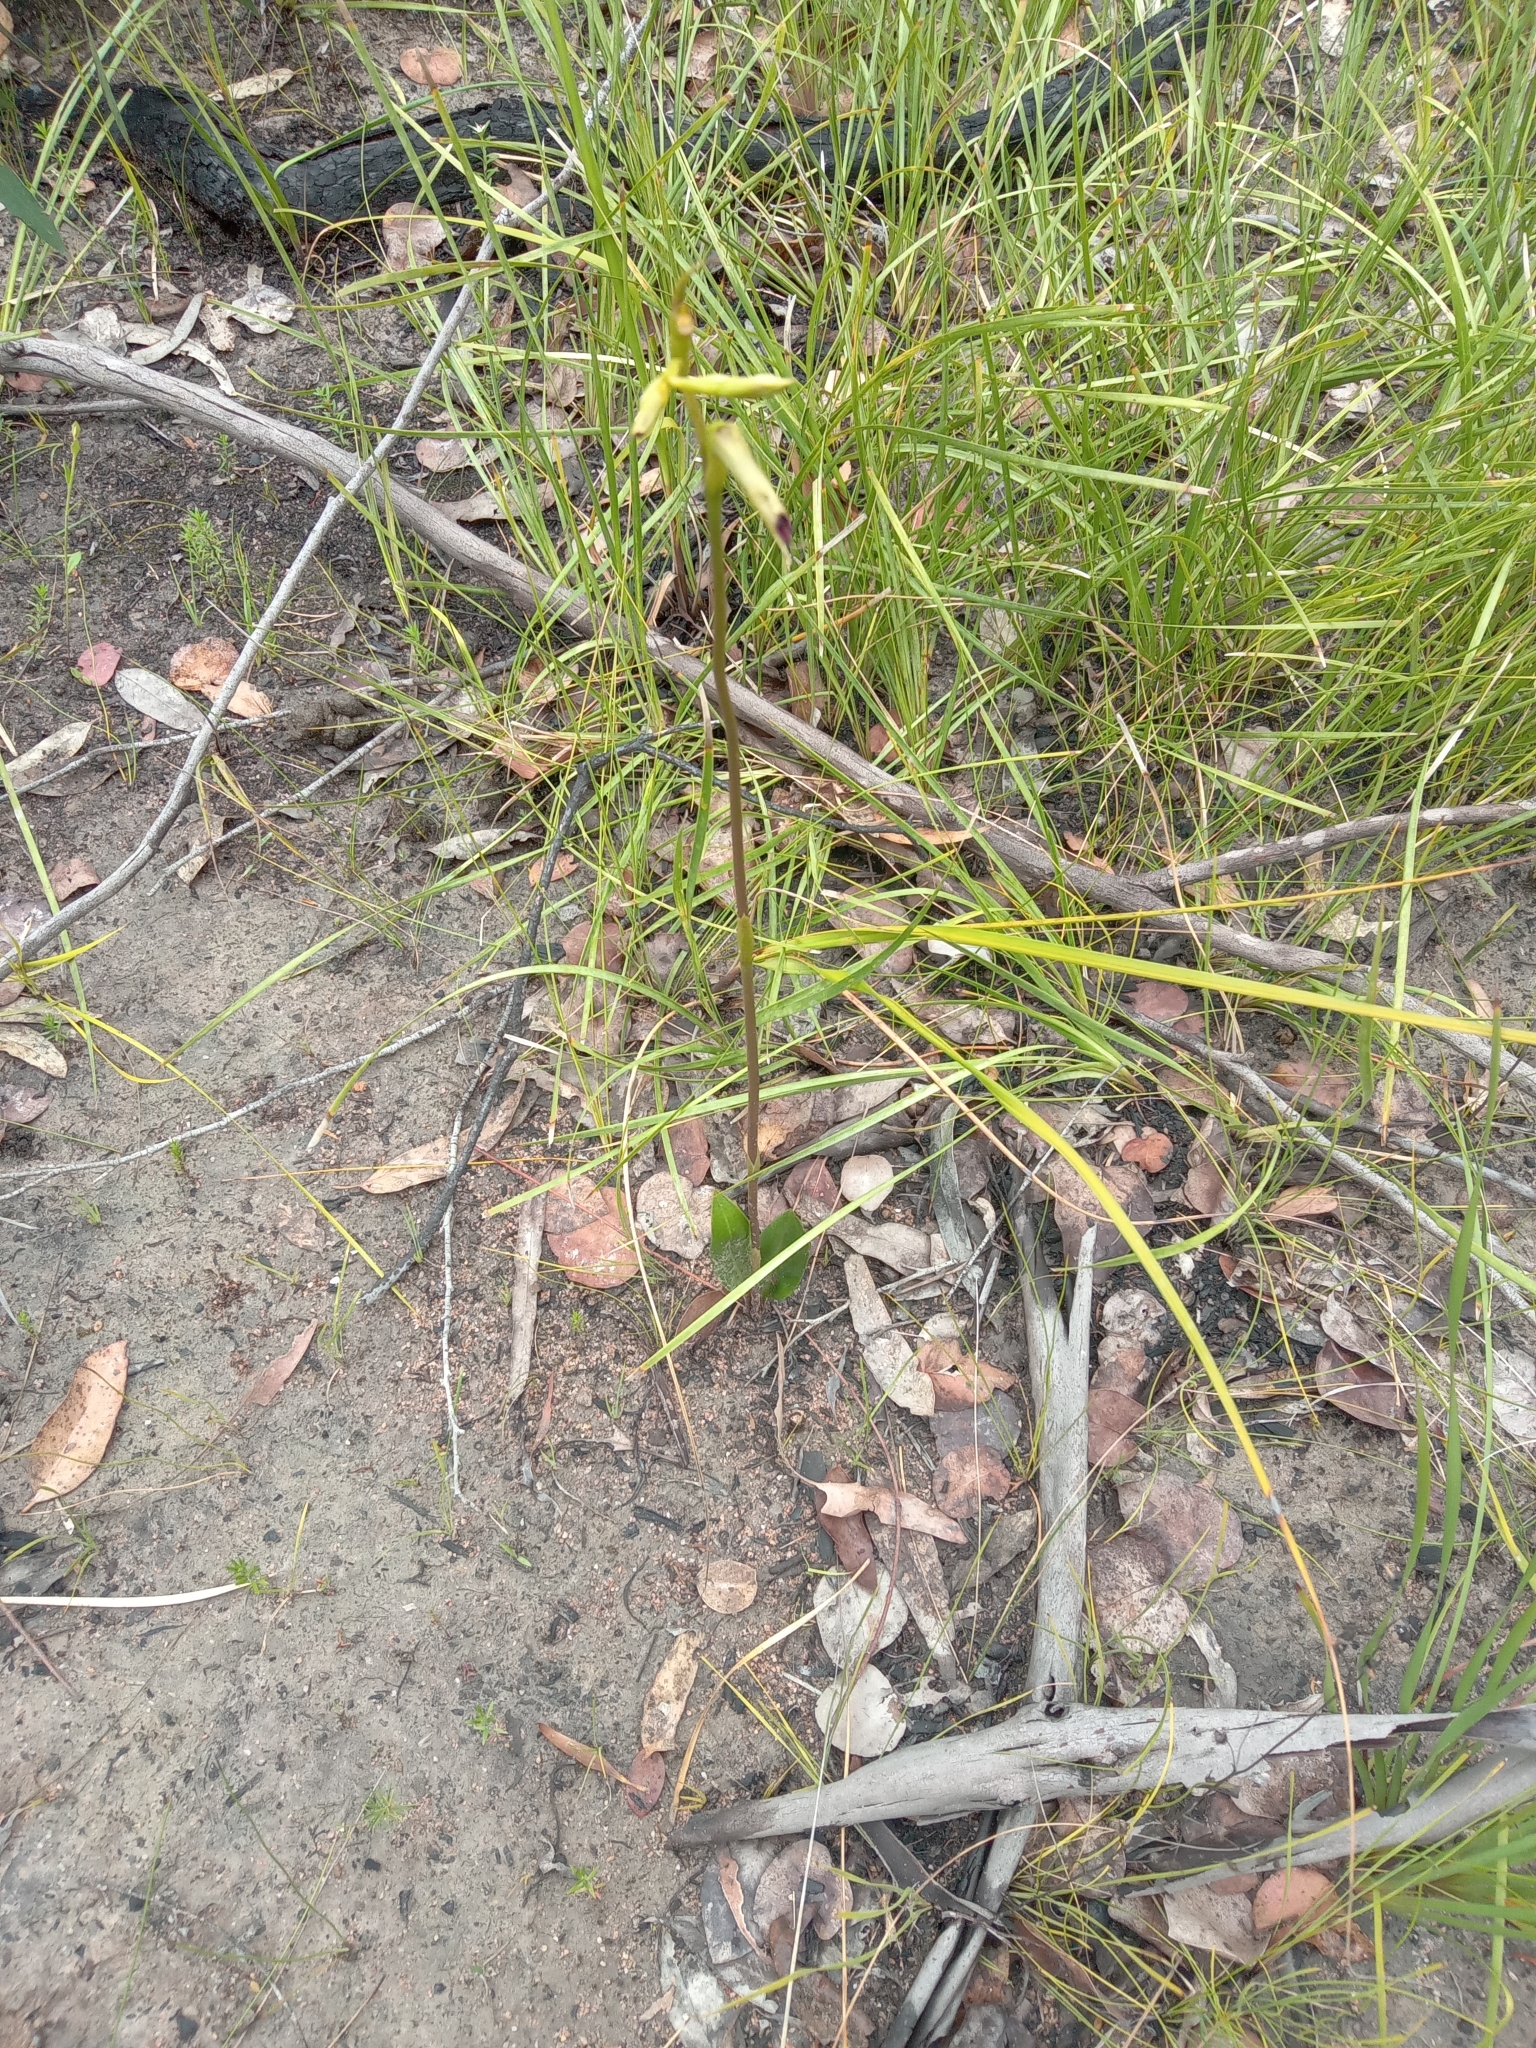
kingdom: Plantae
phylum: Tracheophyta
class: Liliopsida
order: Asparagales
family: Orchidaceae
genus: Cryptostylis
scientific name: Cryptostylis subulata
